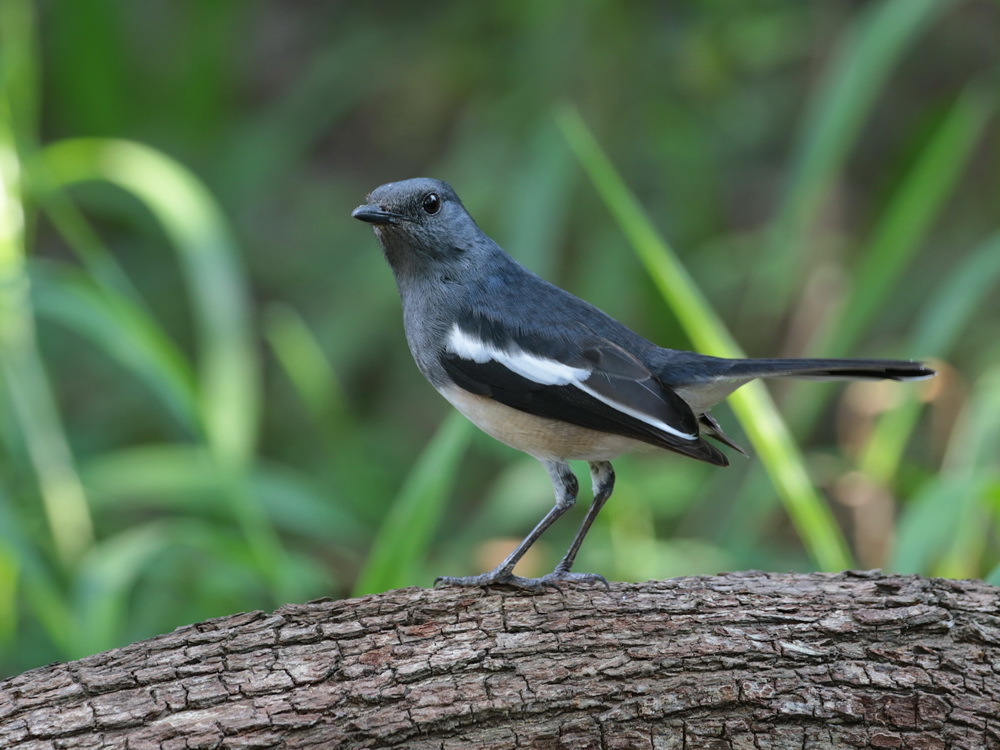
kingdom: Animalia
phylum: Chordata
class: Aves
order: Passeriformes
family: Muscicapidae
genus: Copsychus
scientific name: Copsychus saularis
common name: Oriental magpie-robin
